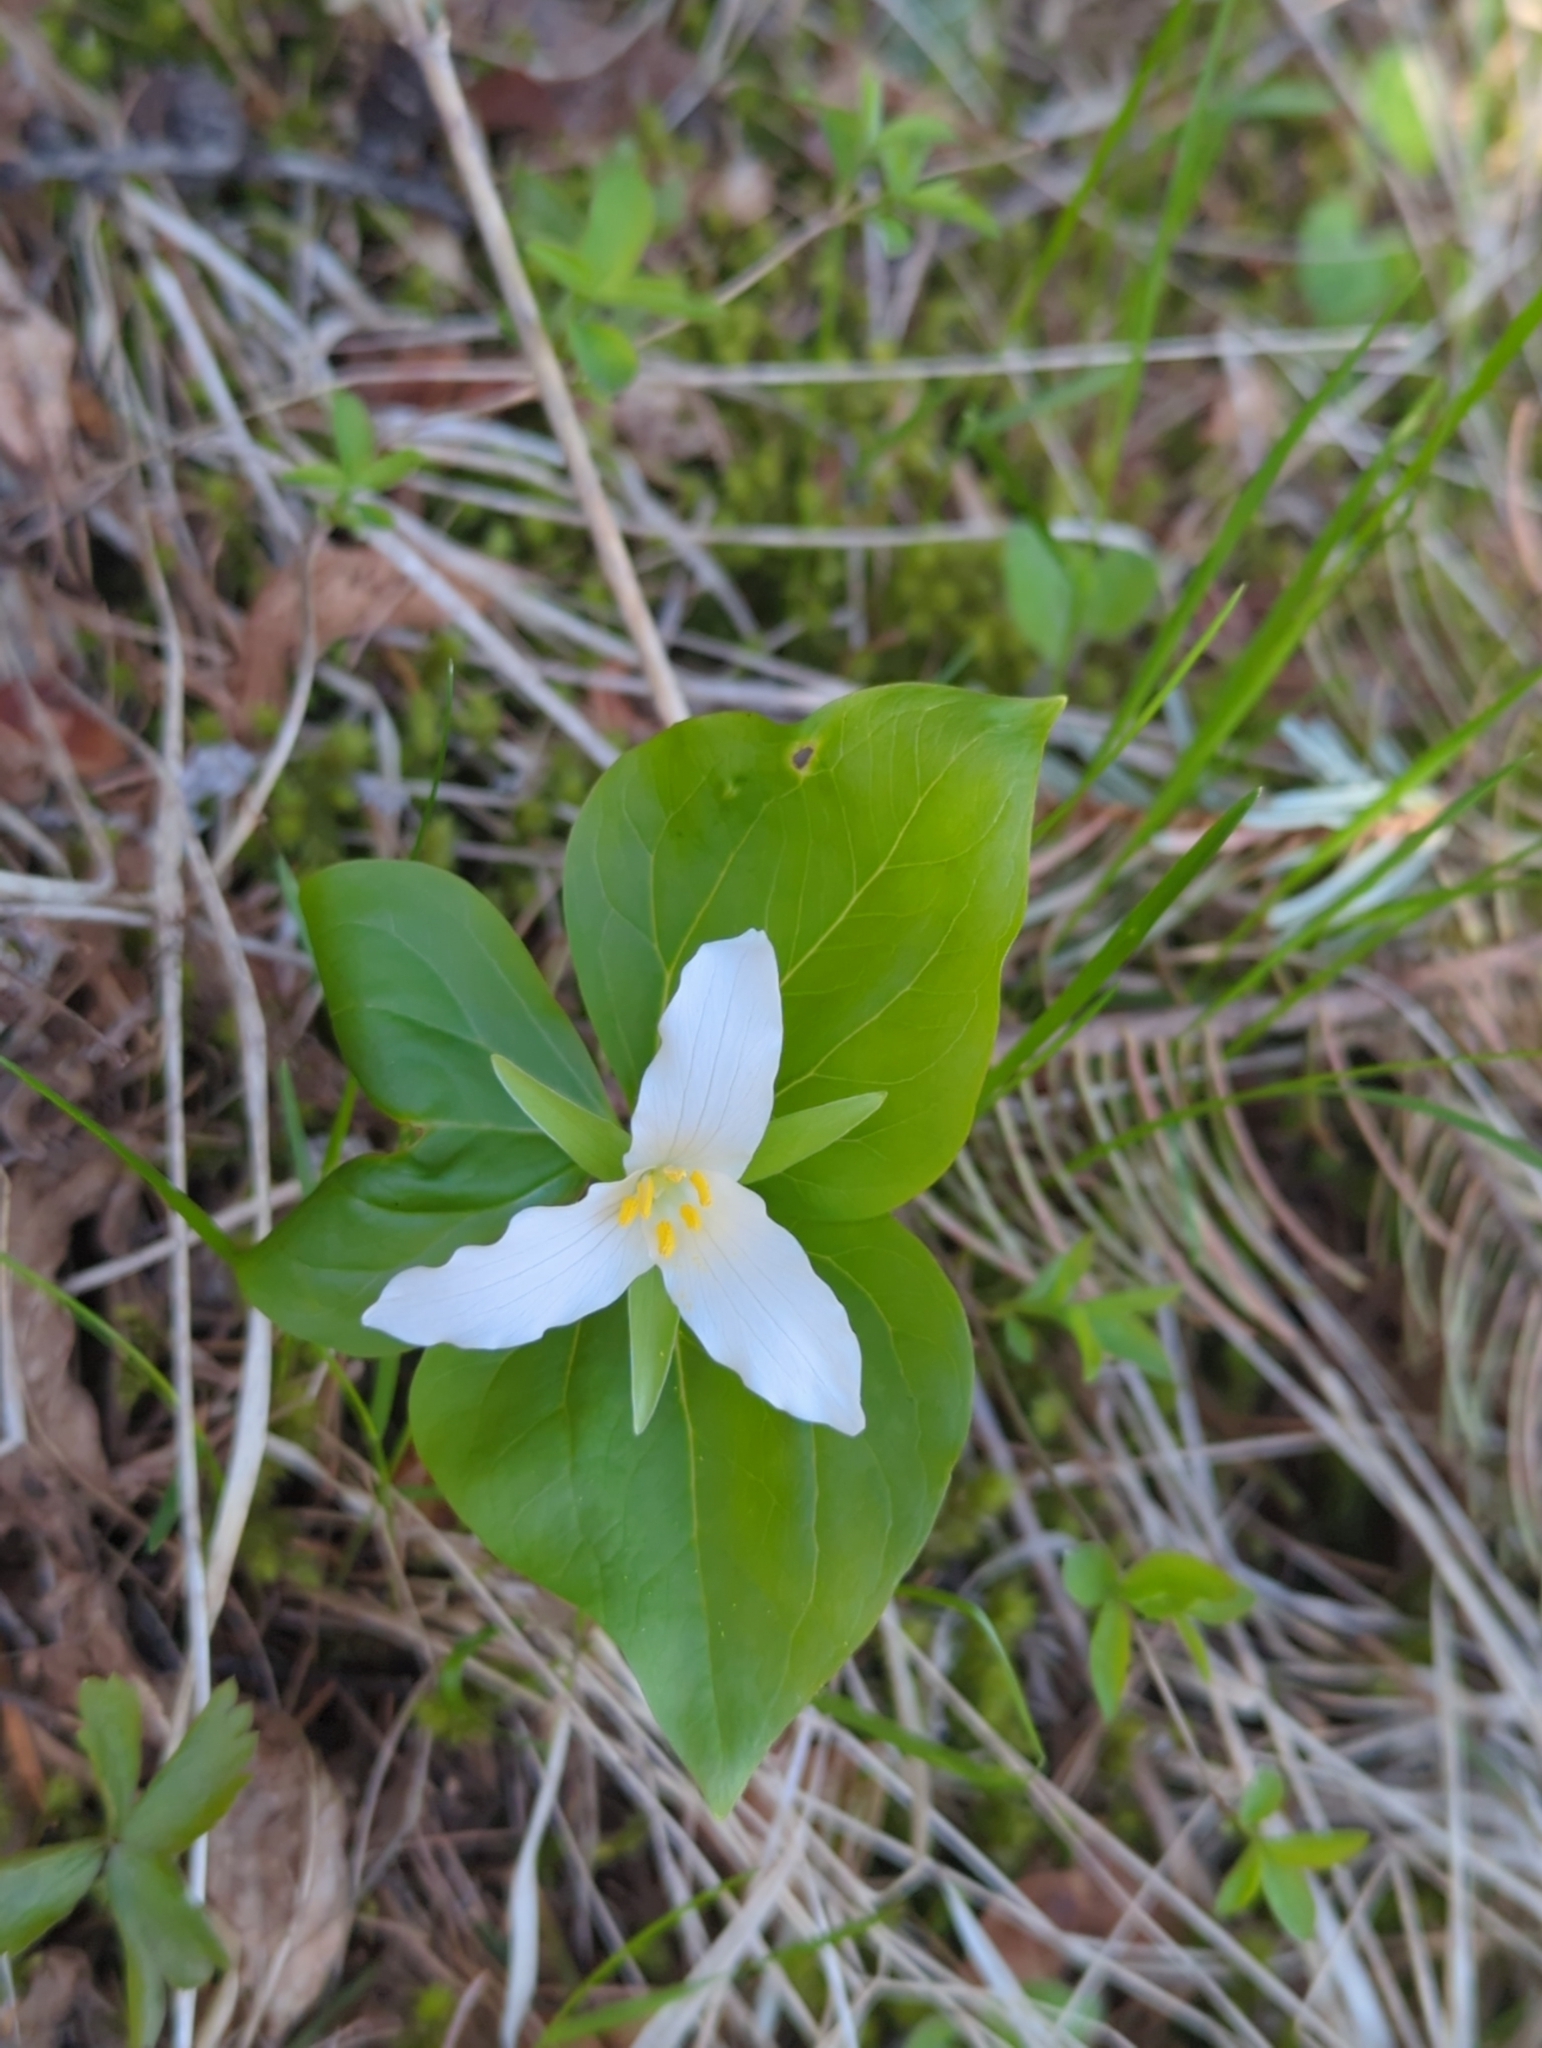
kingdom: Plantae
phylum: Tracheophyta
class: Liliopsida
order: Liliales
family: Melanthiaceae
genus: Trillium
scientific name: Trillium ovatum
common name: Pacific trillium
